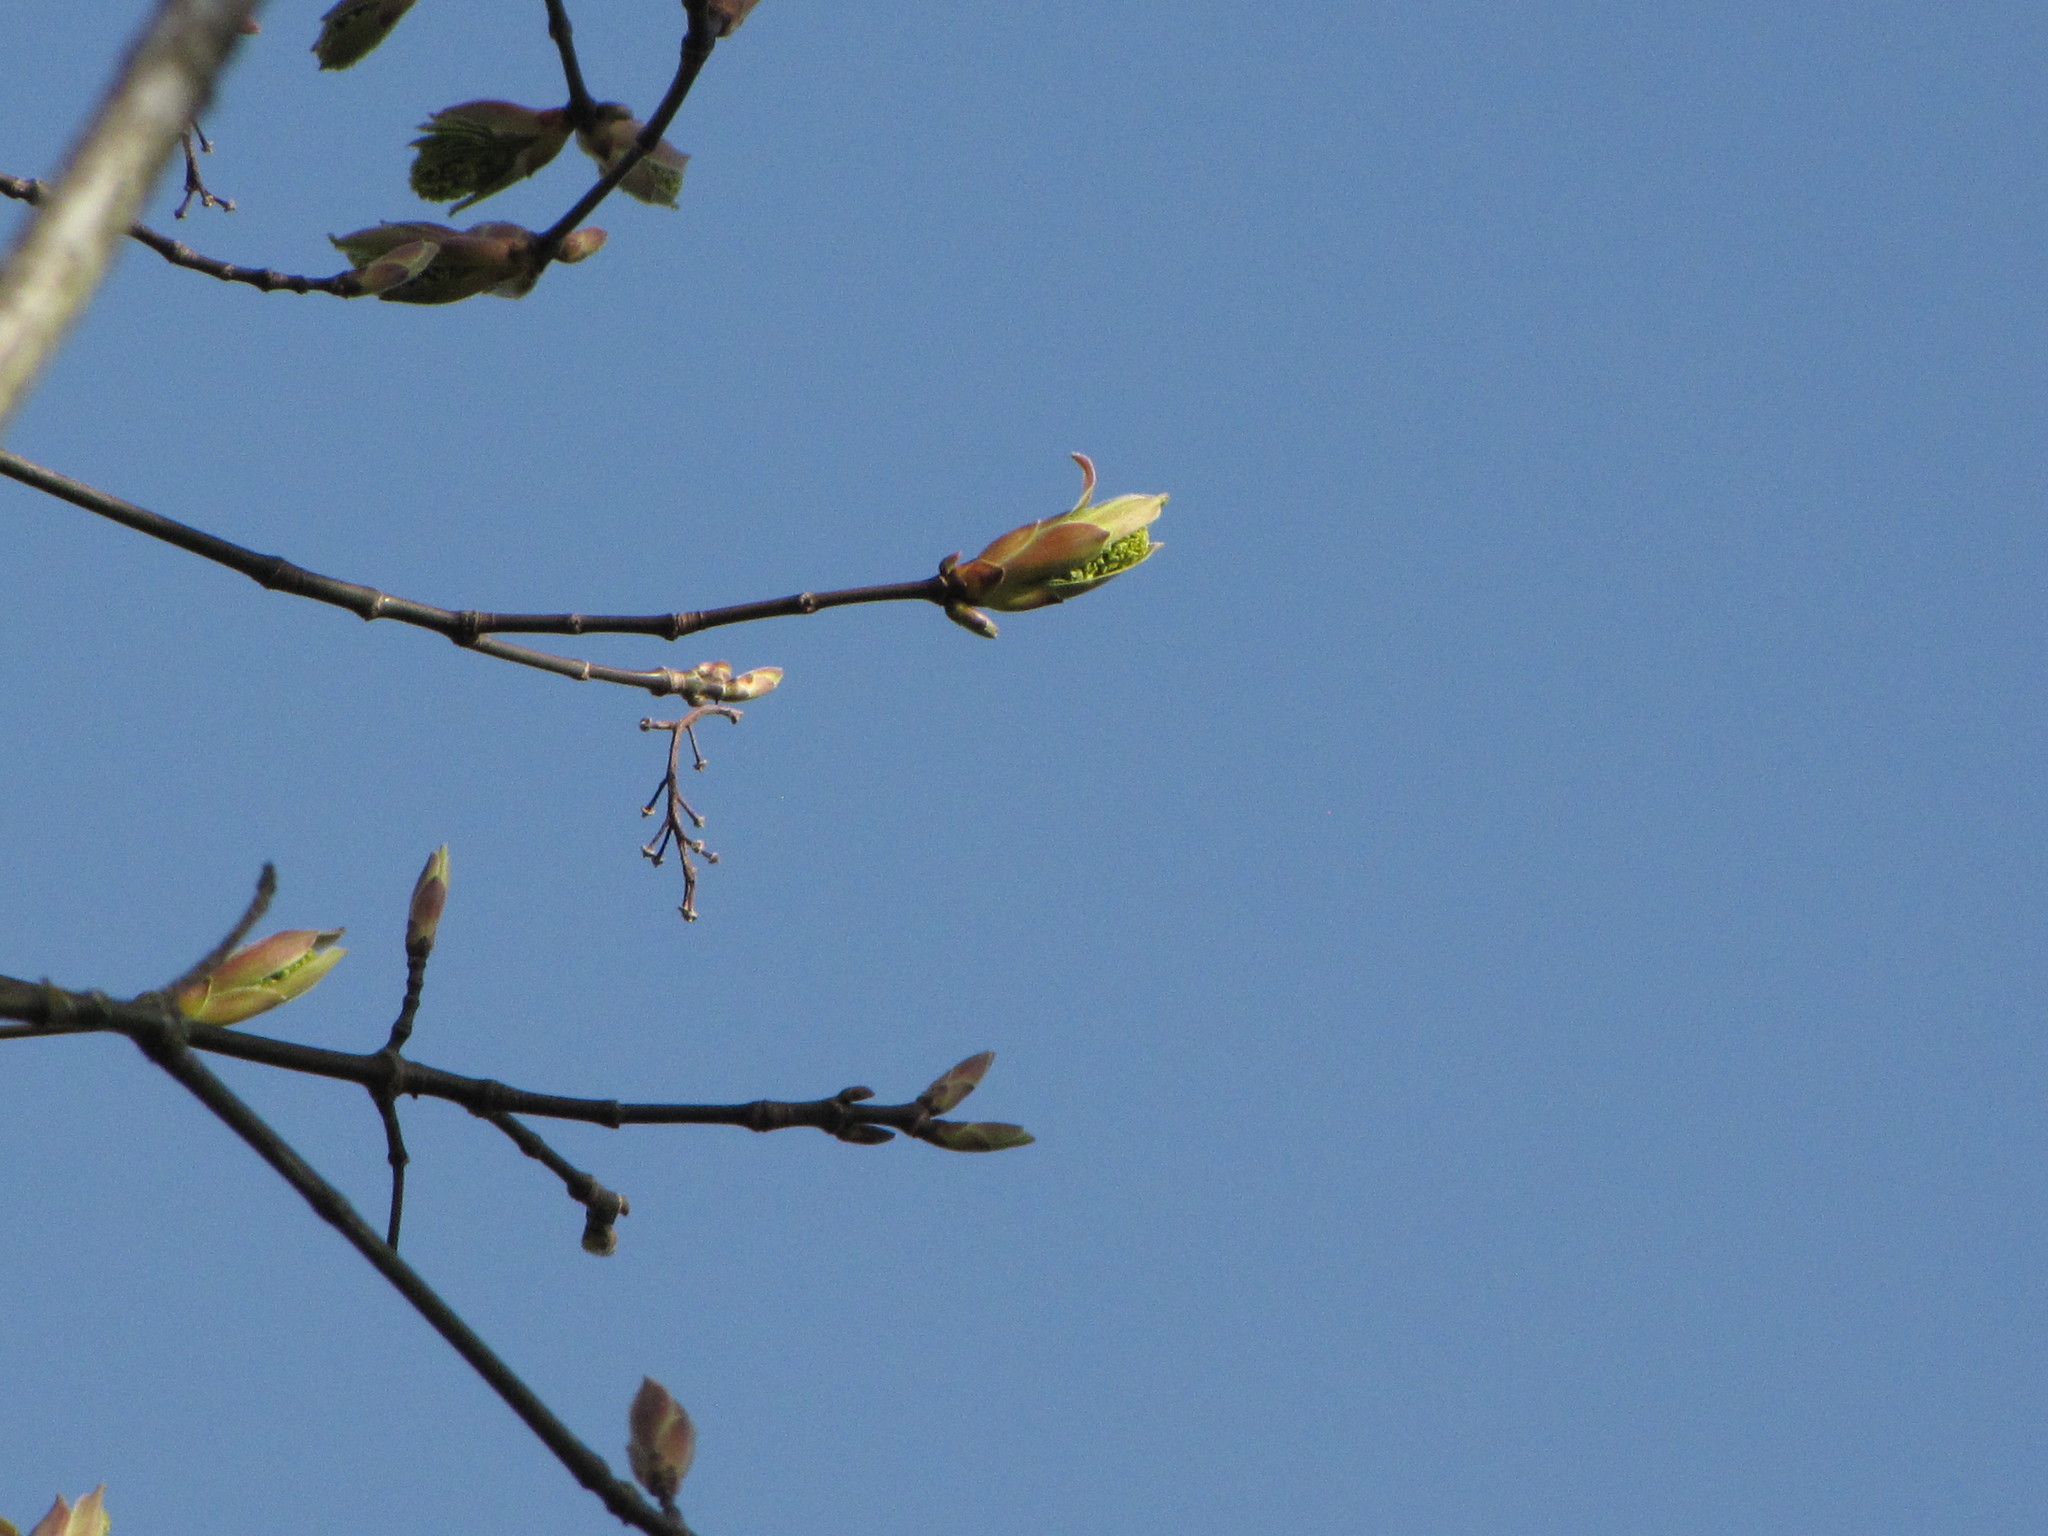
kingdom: Plantae
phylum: Tracheophyta
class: Magnoliopsida
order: Sapindales
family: Sapindaceae
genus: Acer
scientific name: Acer macrophyllum
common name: Oregon maple
